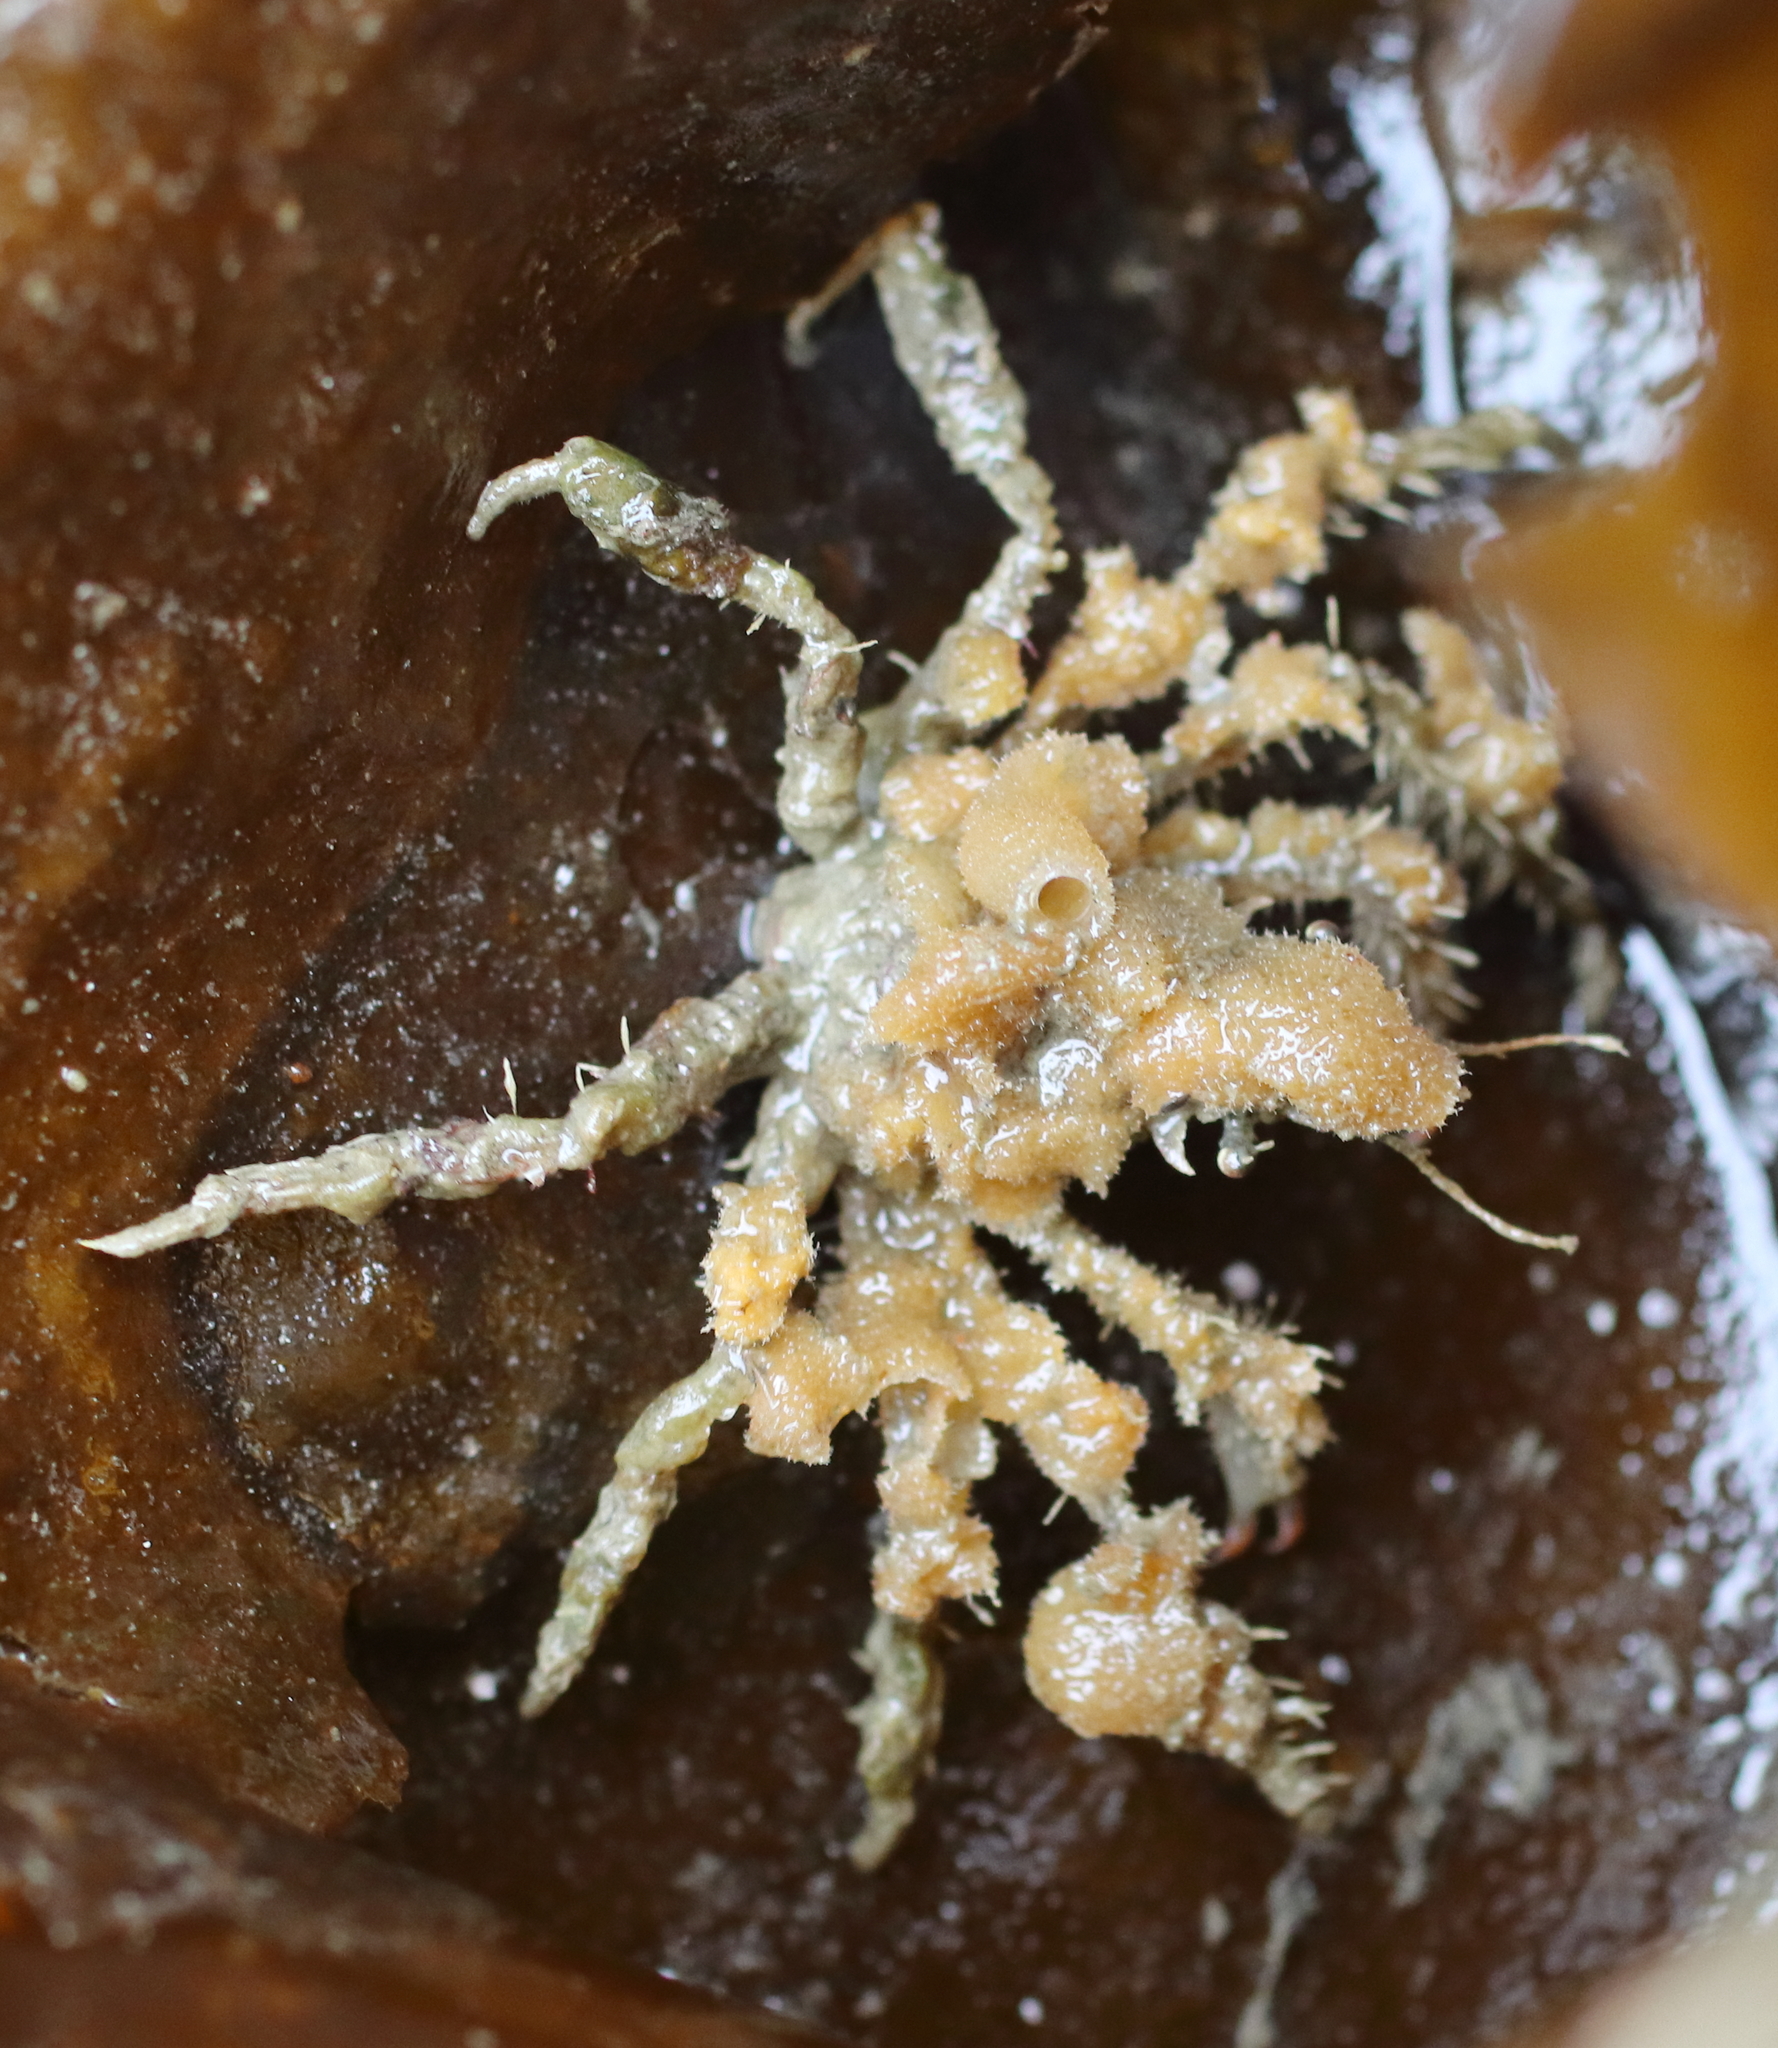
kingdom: Animalia
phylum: Arthropoda
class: Malacostraca
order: Decapoda
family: Oregoniidae
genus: Oregonia
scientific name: Oregonia gracilis
